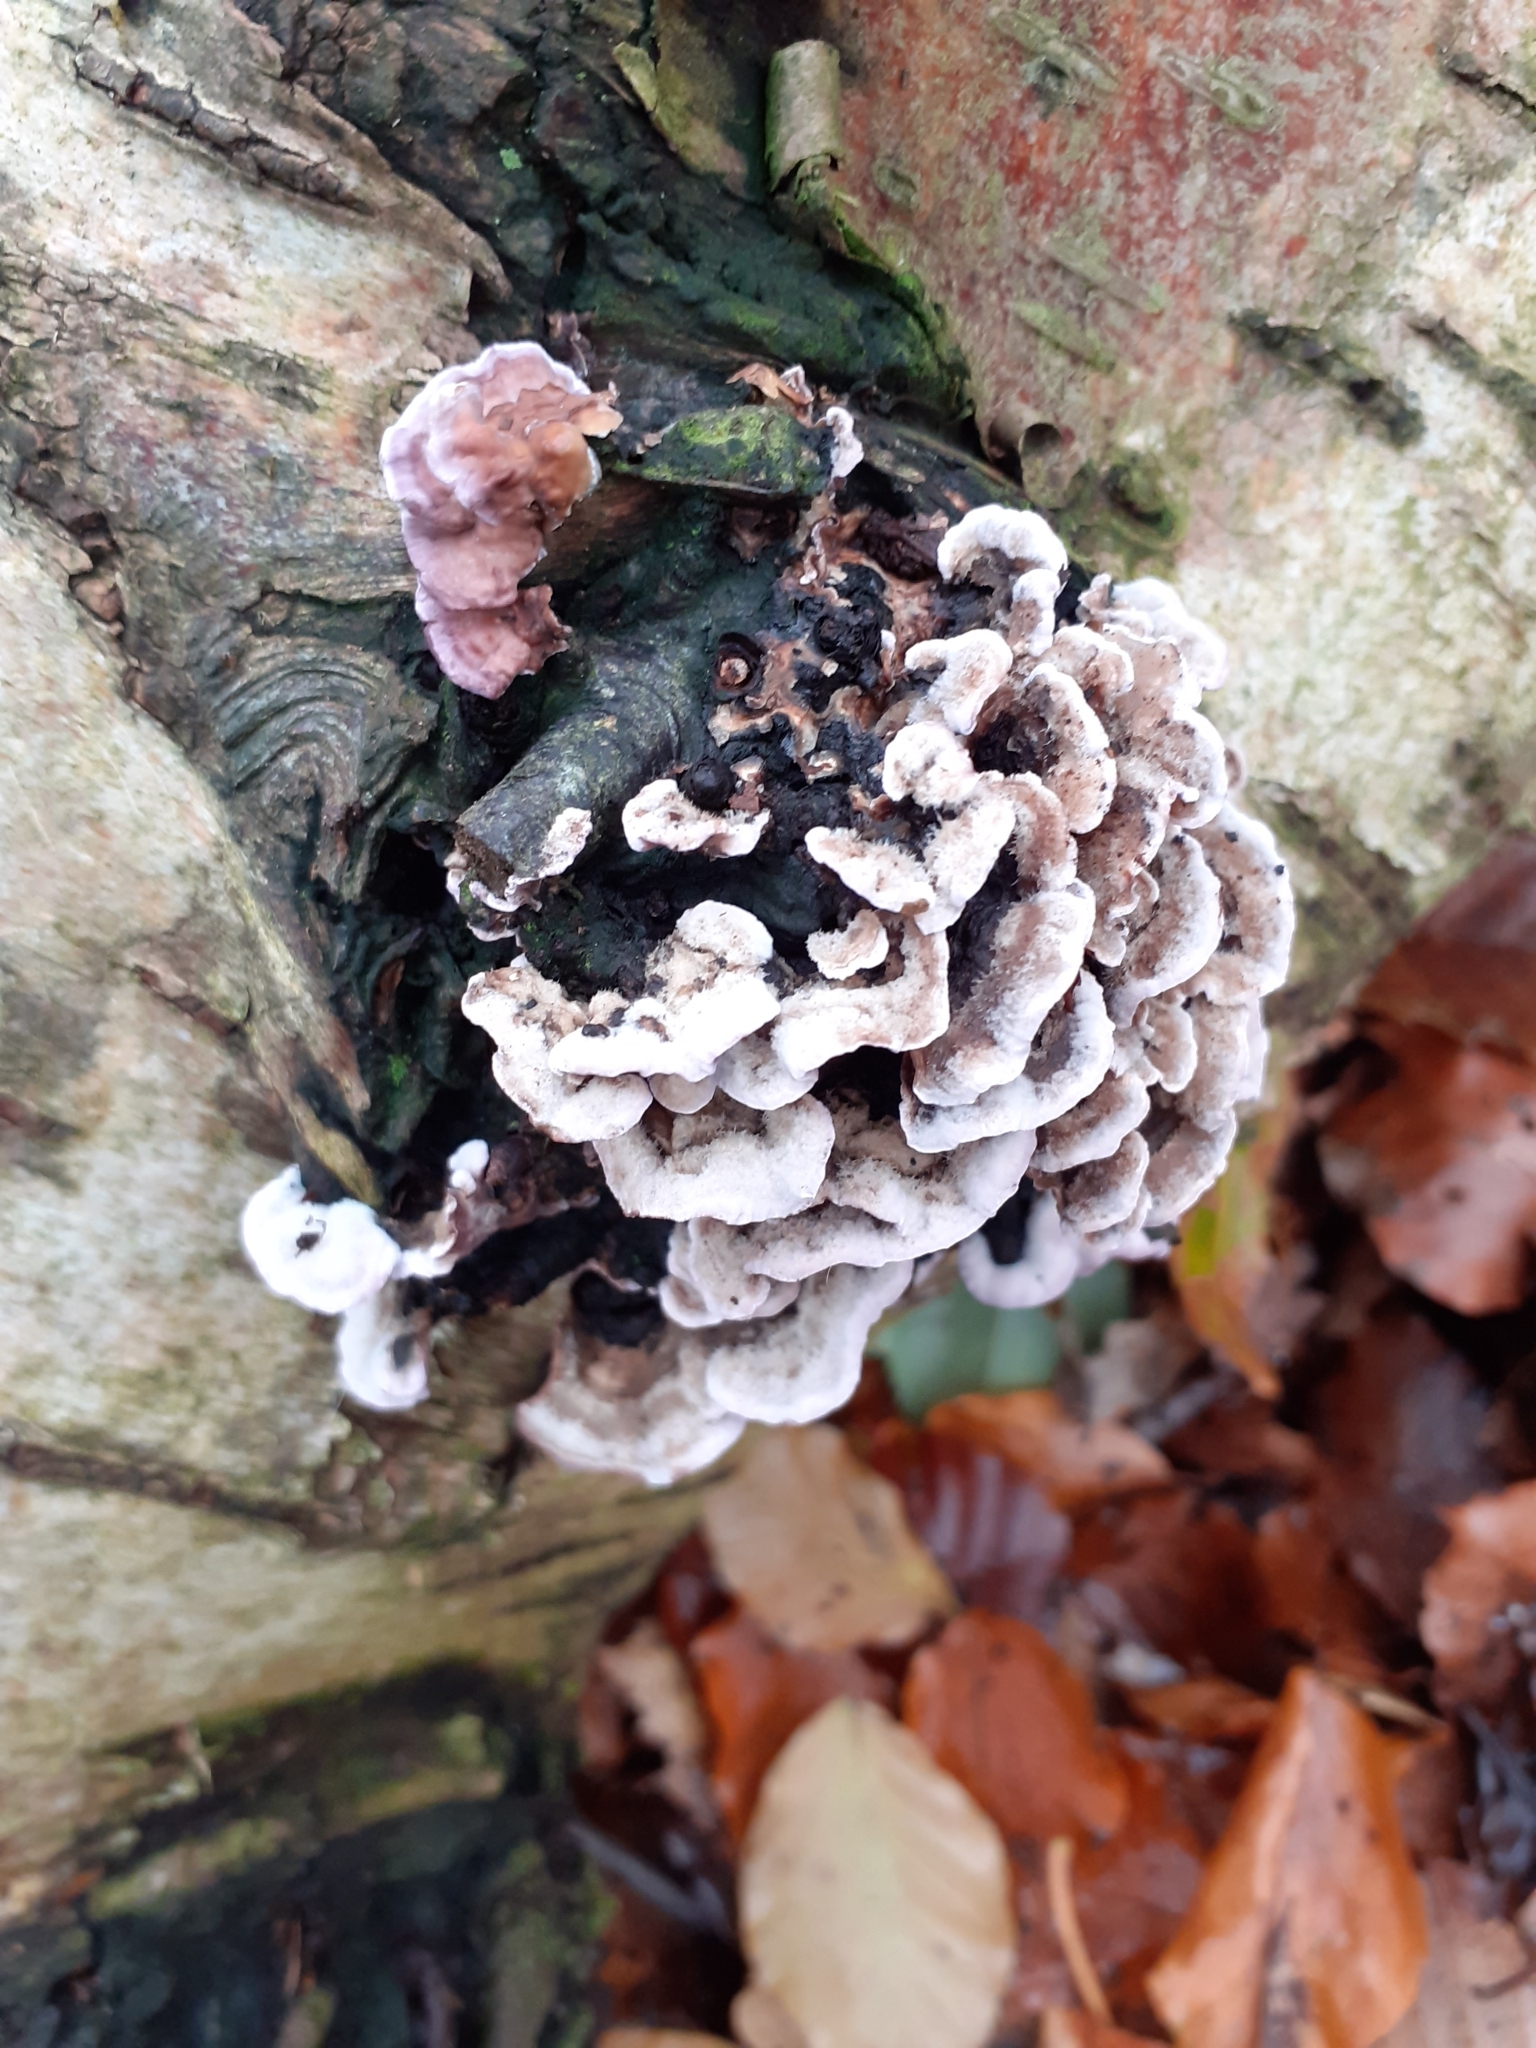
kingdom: Fungi
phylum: Basidiomycota
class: Agaricomycetes
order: Agaricales
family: Cyphellaceae
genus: Chondrostereum
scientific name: Chondrostereum purpureum
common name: Silver leaf disease
